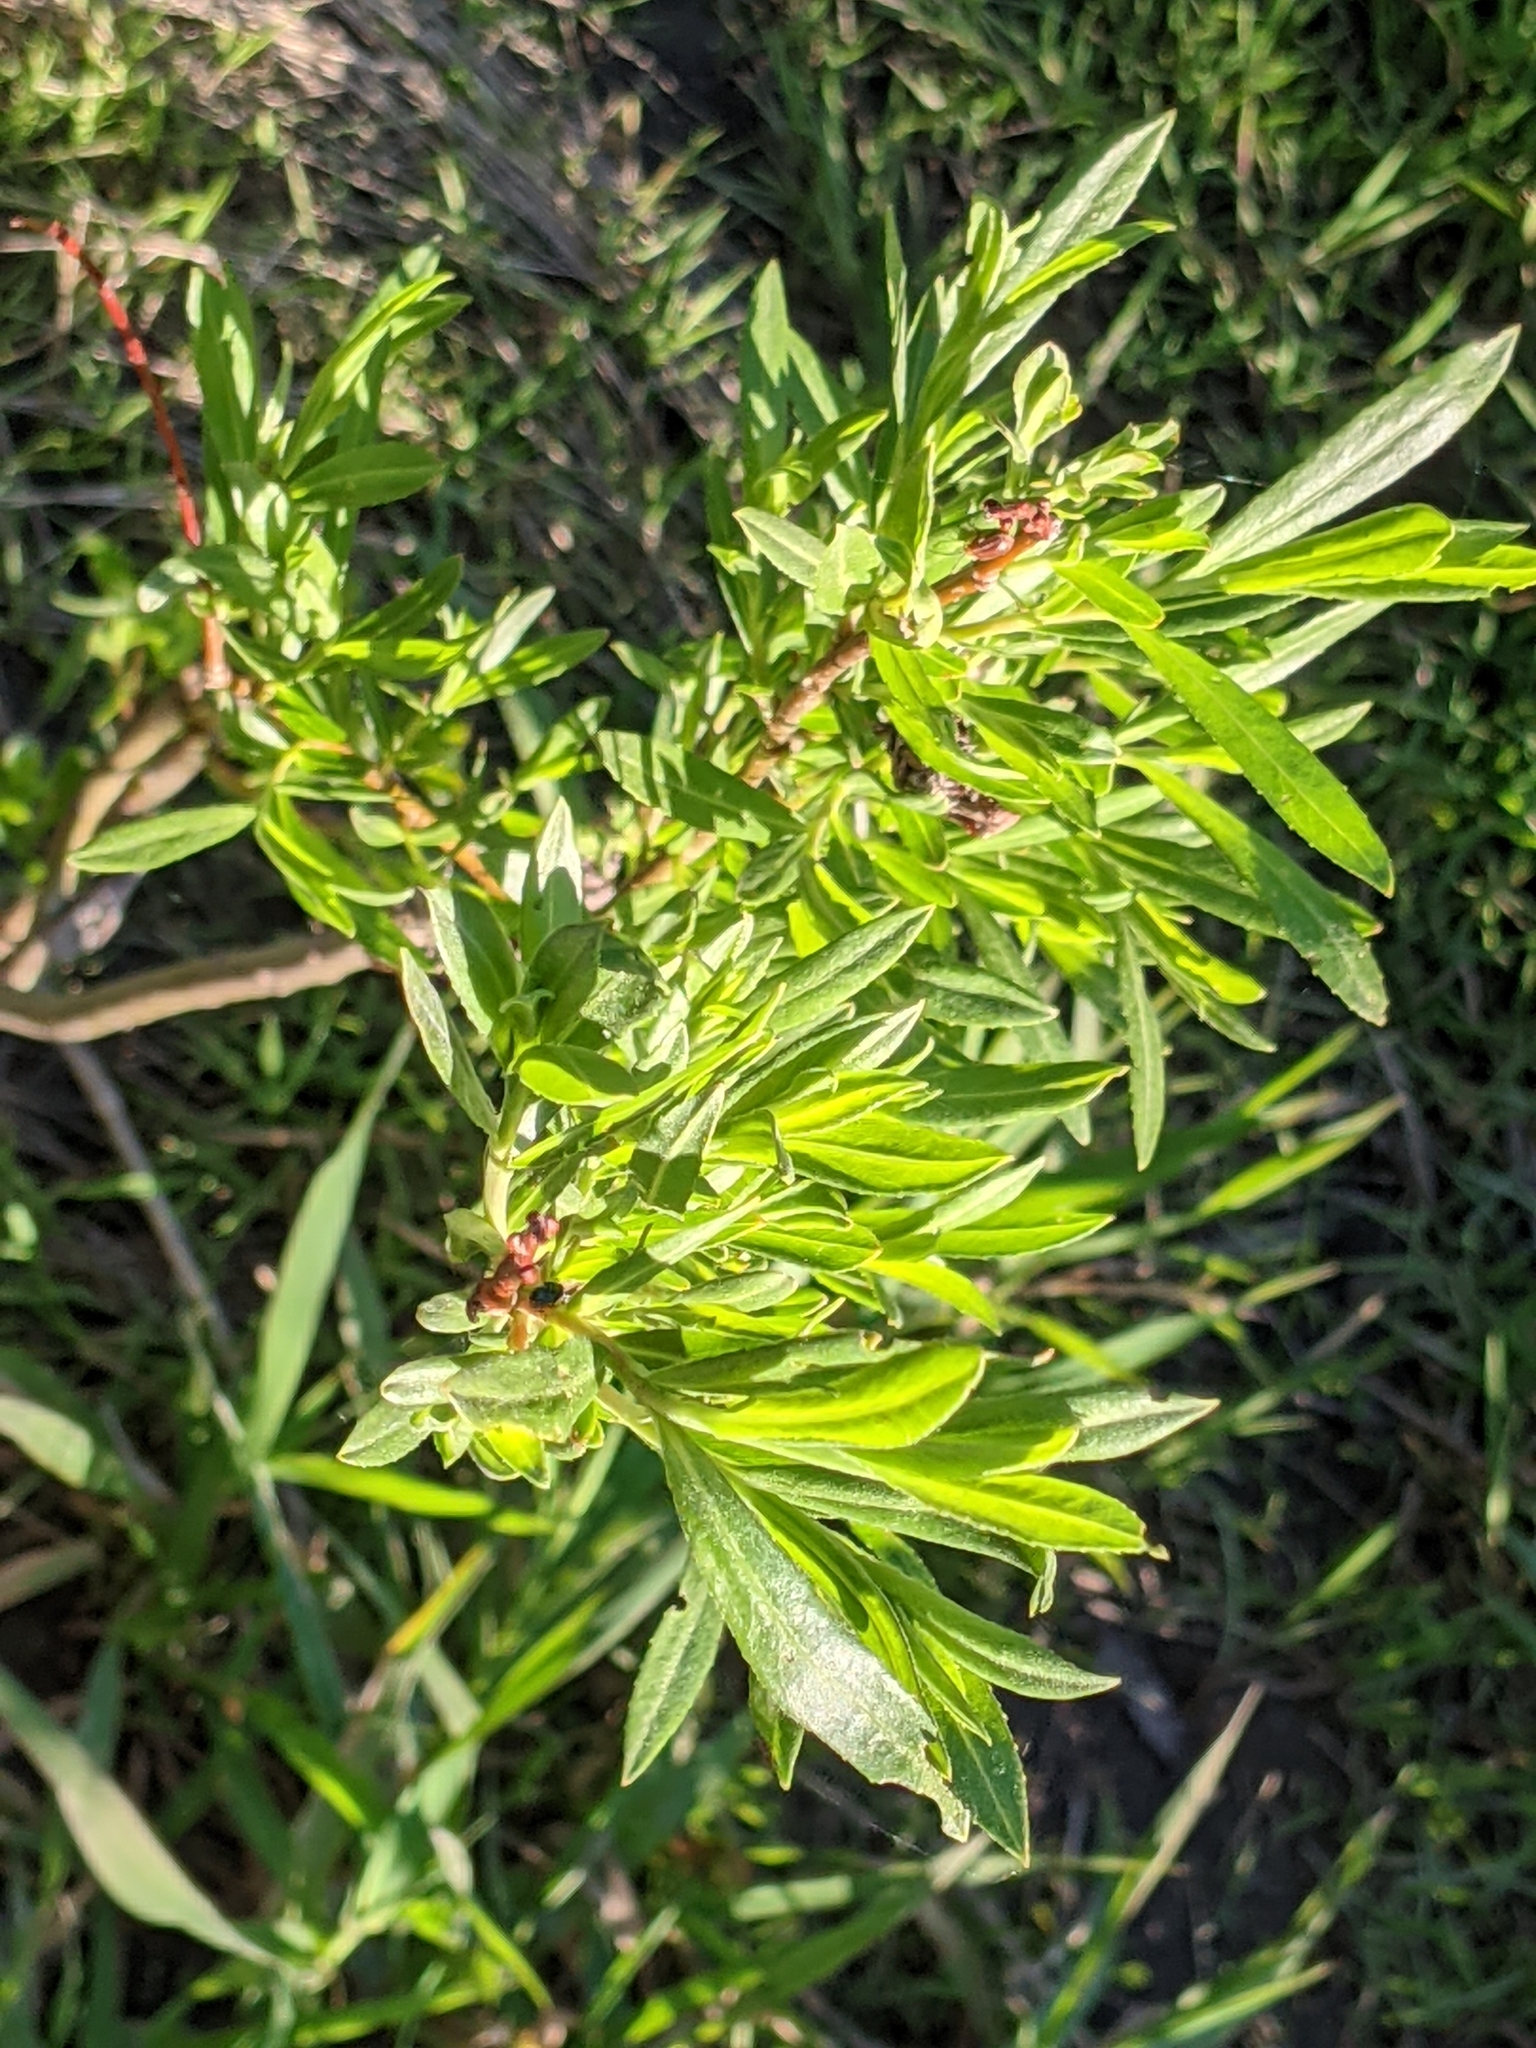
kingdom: Plantae
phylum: Tracheophyta
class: Magnoliopsida
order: Malpighiales
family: Salicaceae
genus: Salix
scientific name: Salix interior
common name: Sandbar willow
